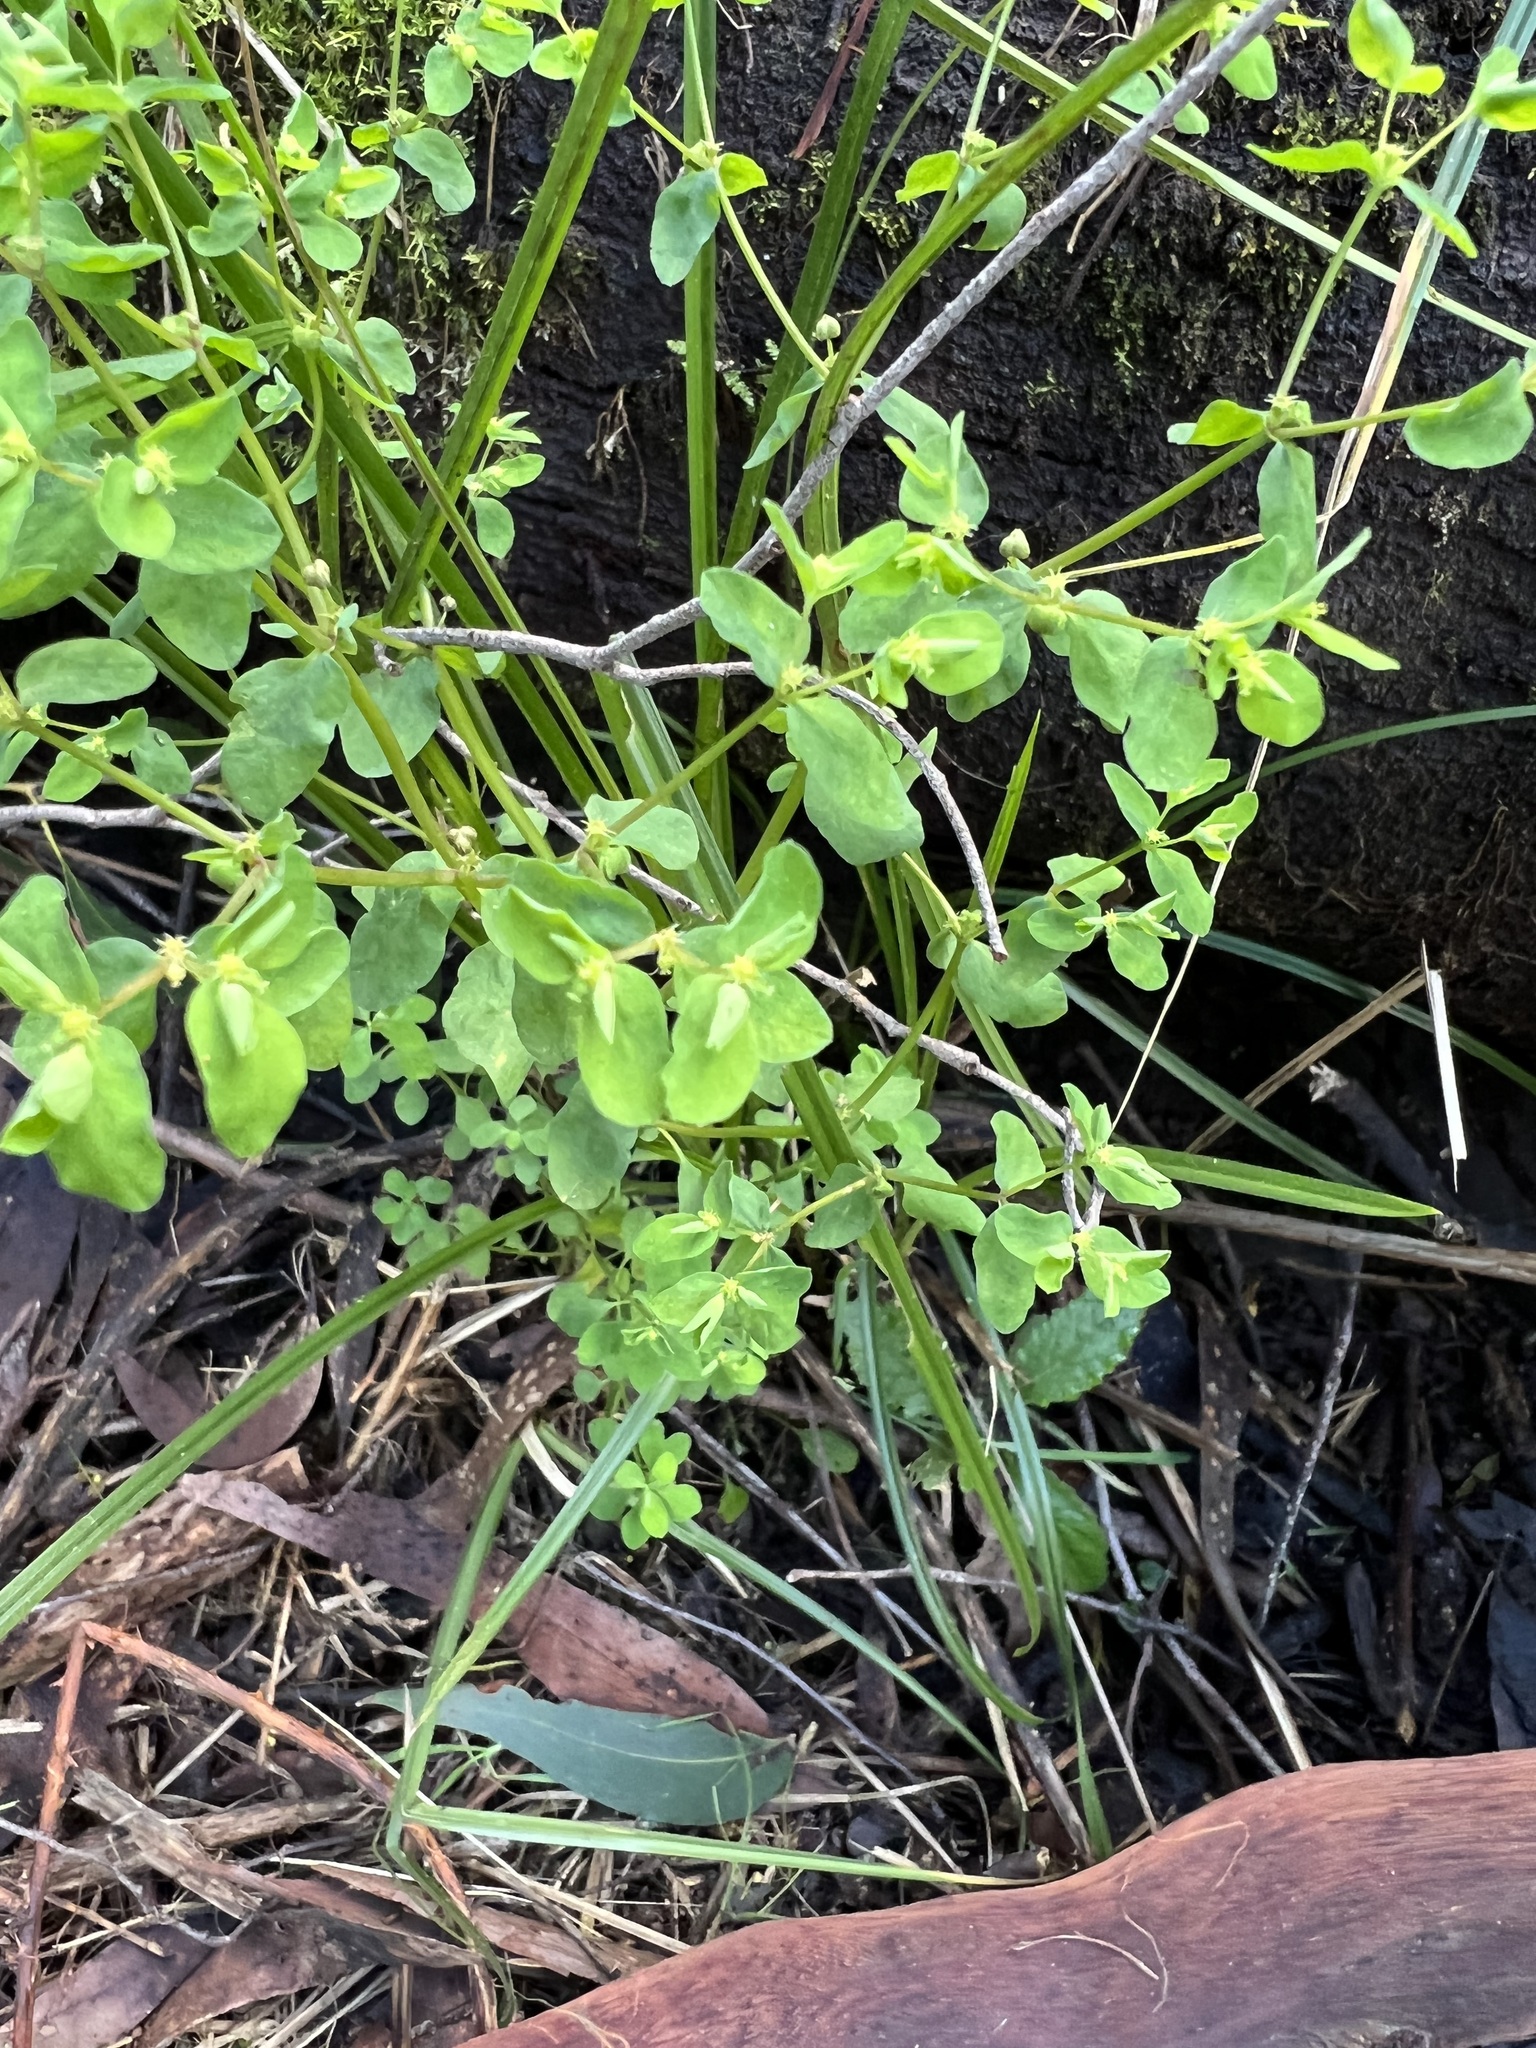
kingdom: Plantae
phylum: Tracheophyta
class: Magnoliopsida
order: Malpighiales
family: Euphorbiaceae
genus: Euphorbia
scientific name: Euphorbia peplus
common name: Petty spurge
